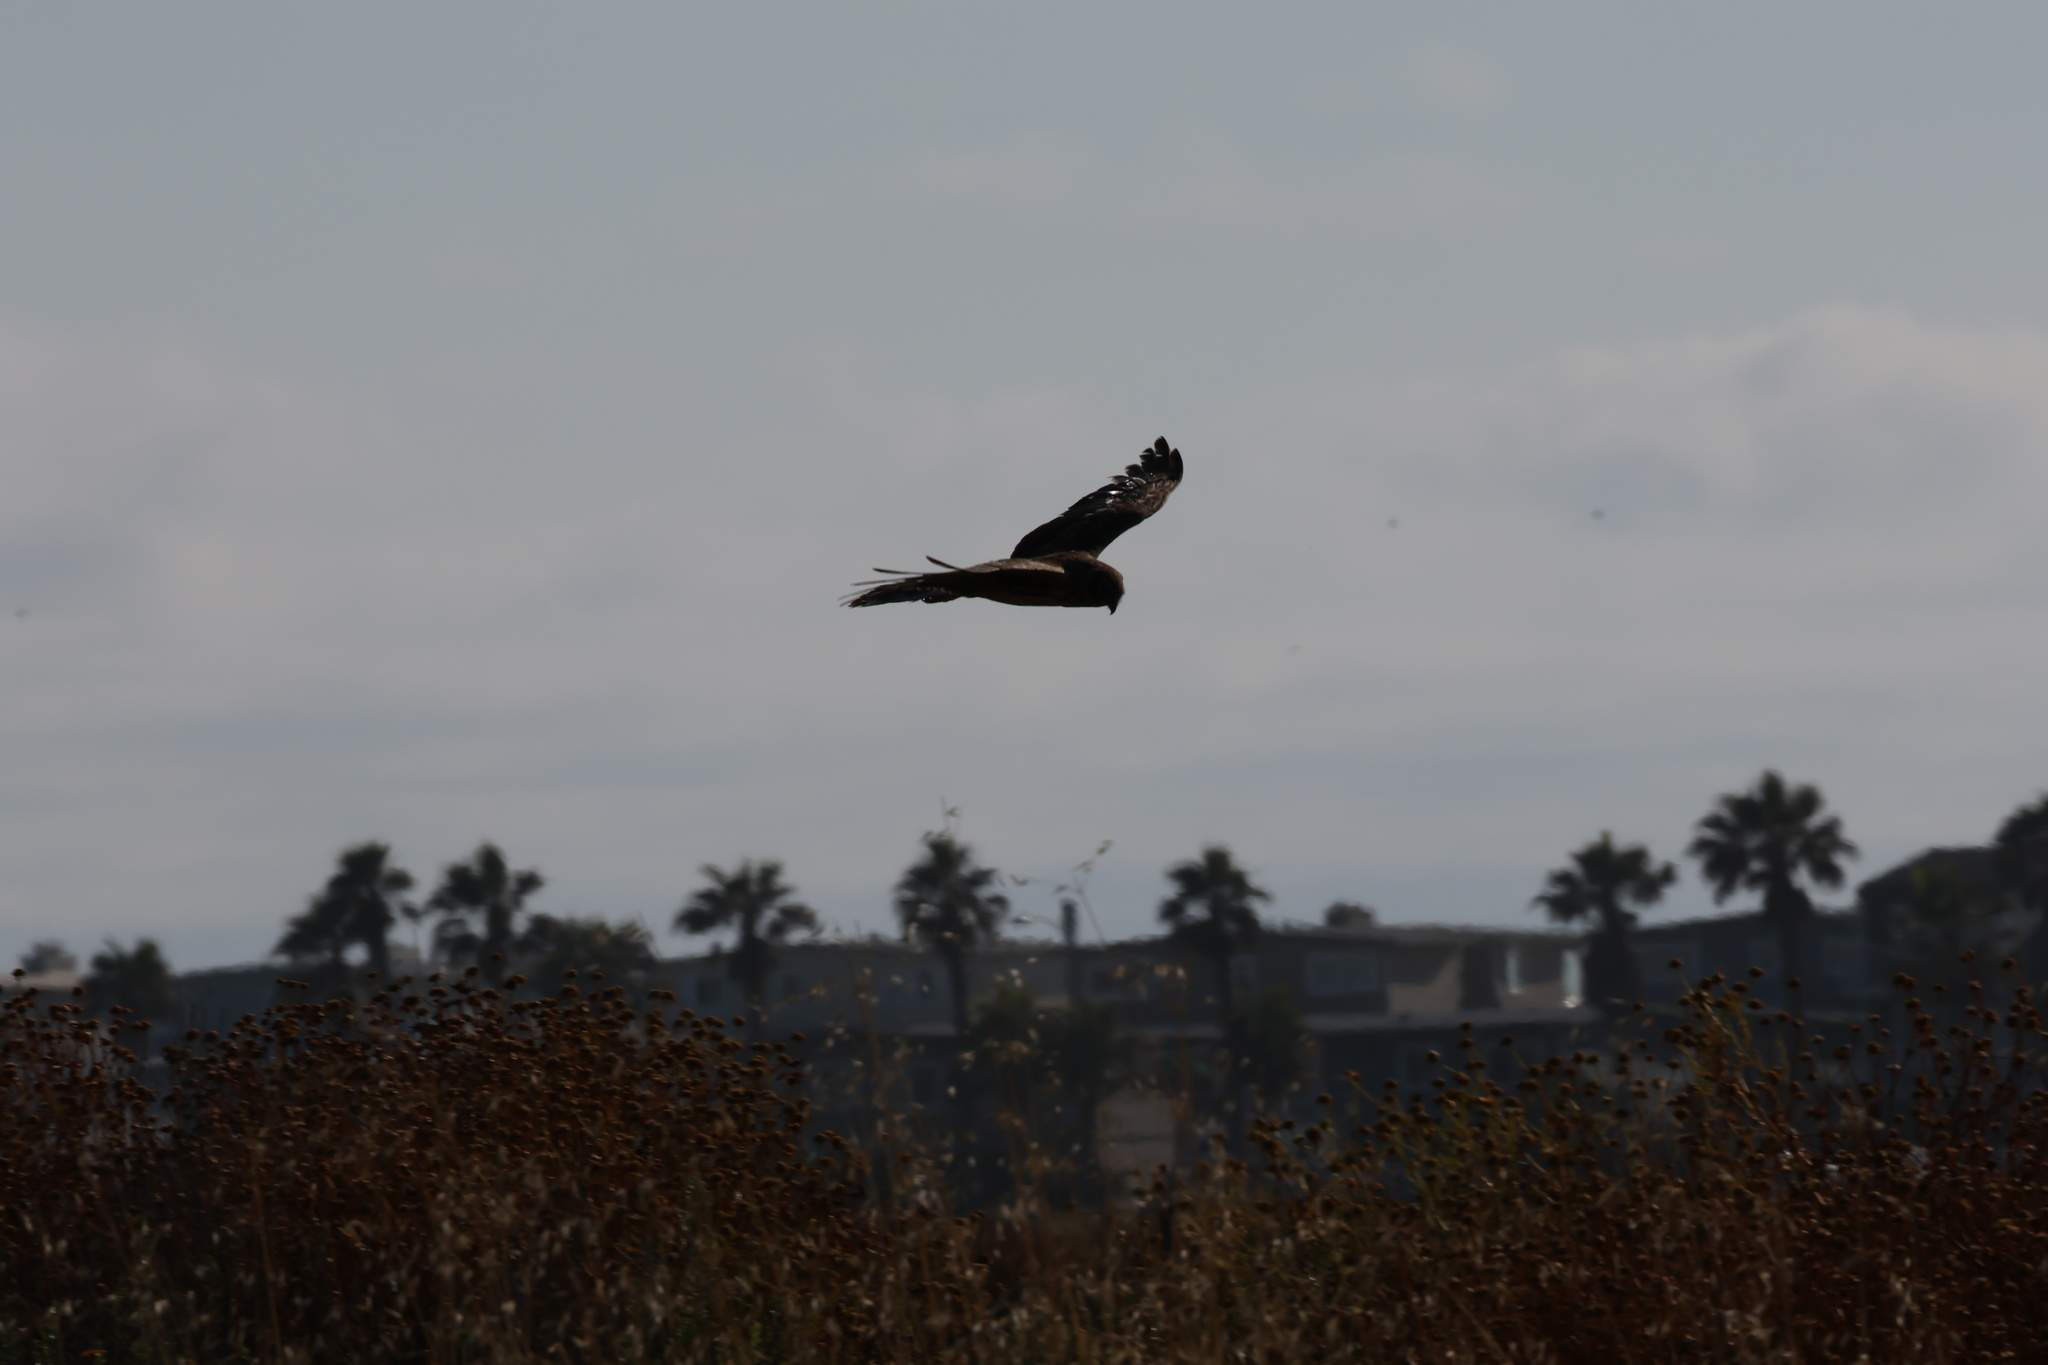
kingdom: Animalia
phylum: Chordata
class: Aves
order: Accipitriformes
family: Accipitridae
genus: Circus
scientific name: Circus cyaneus
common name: Hen harrier
